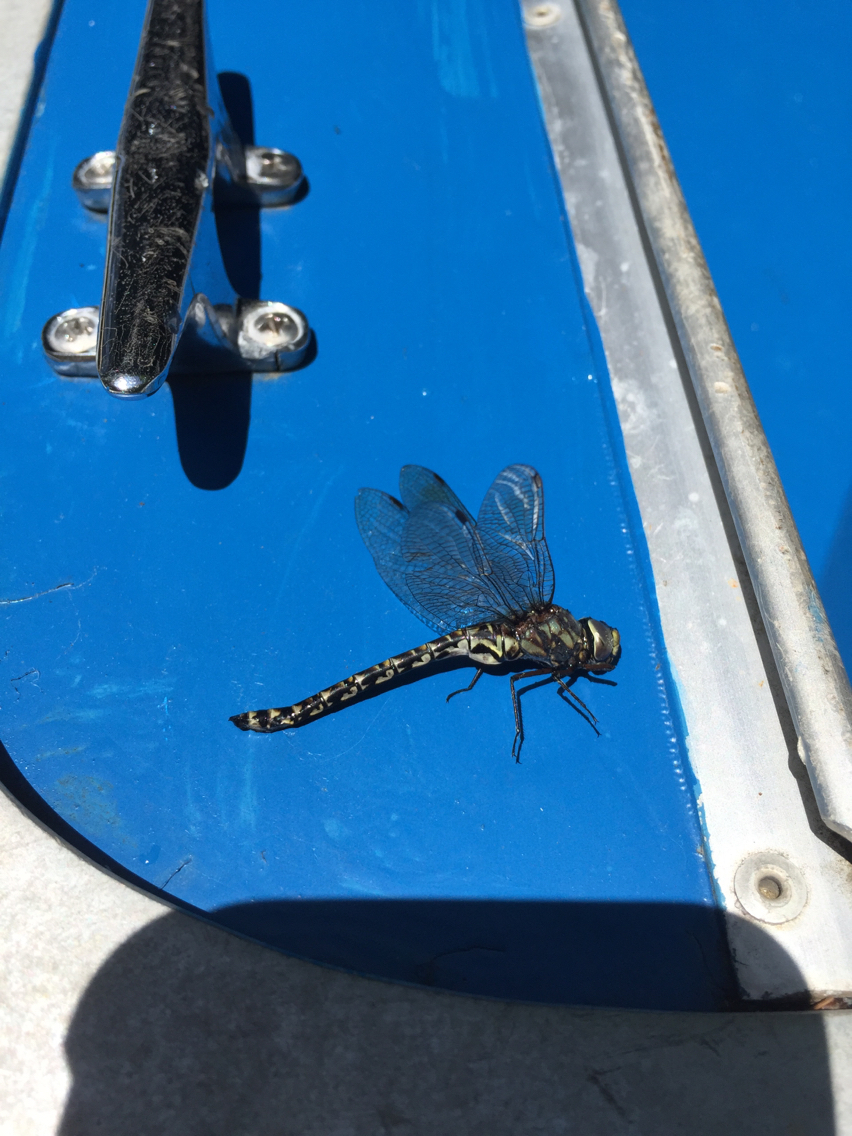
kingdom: Animalia
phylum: Arthropoda
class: Insecta
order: Odonata
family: Aeshnidae
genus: Gomphaeschna
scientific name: Gomphaeschna furcillata
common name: Harlequin darner
